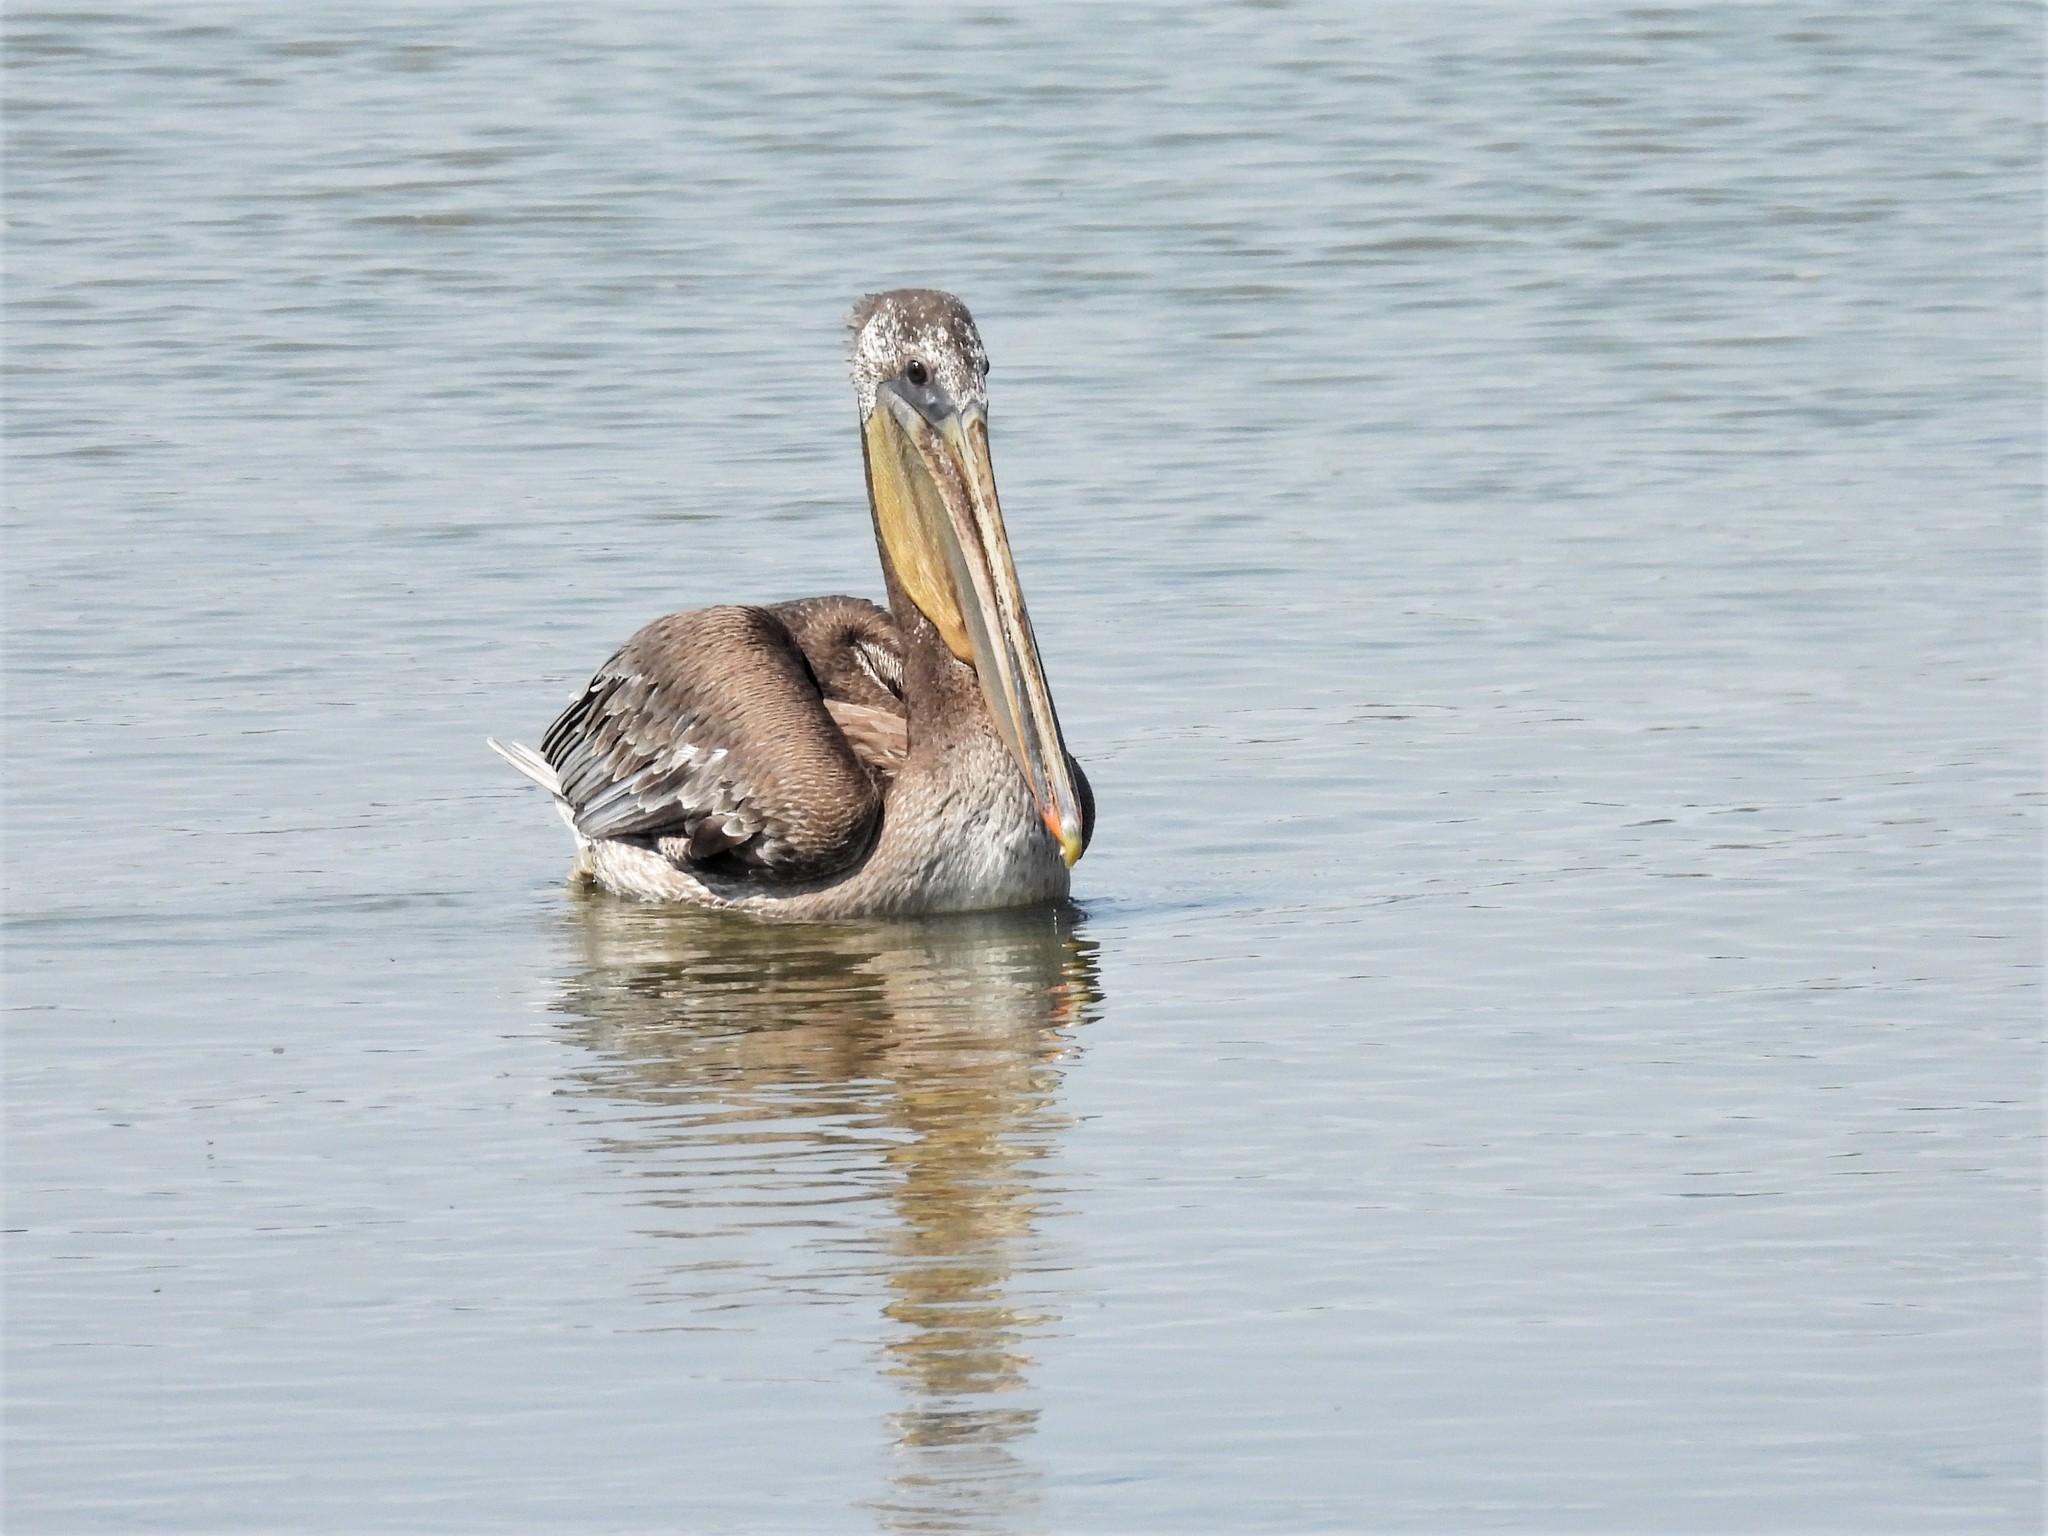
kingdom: Animalia
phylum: Chordata
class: Aves
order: Pelecaniformes
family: Pelecanidae
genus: Pelecanus
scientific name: Pelecanus occidentalis
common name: Brown pelican
